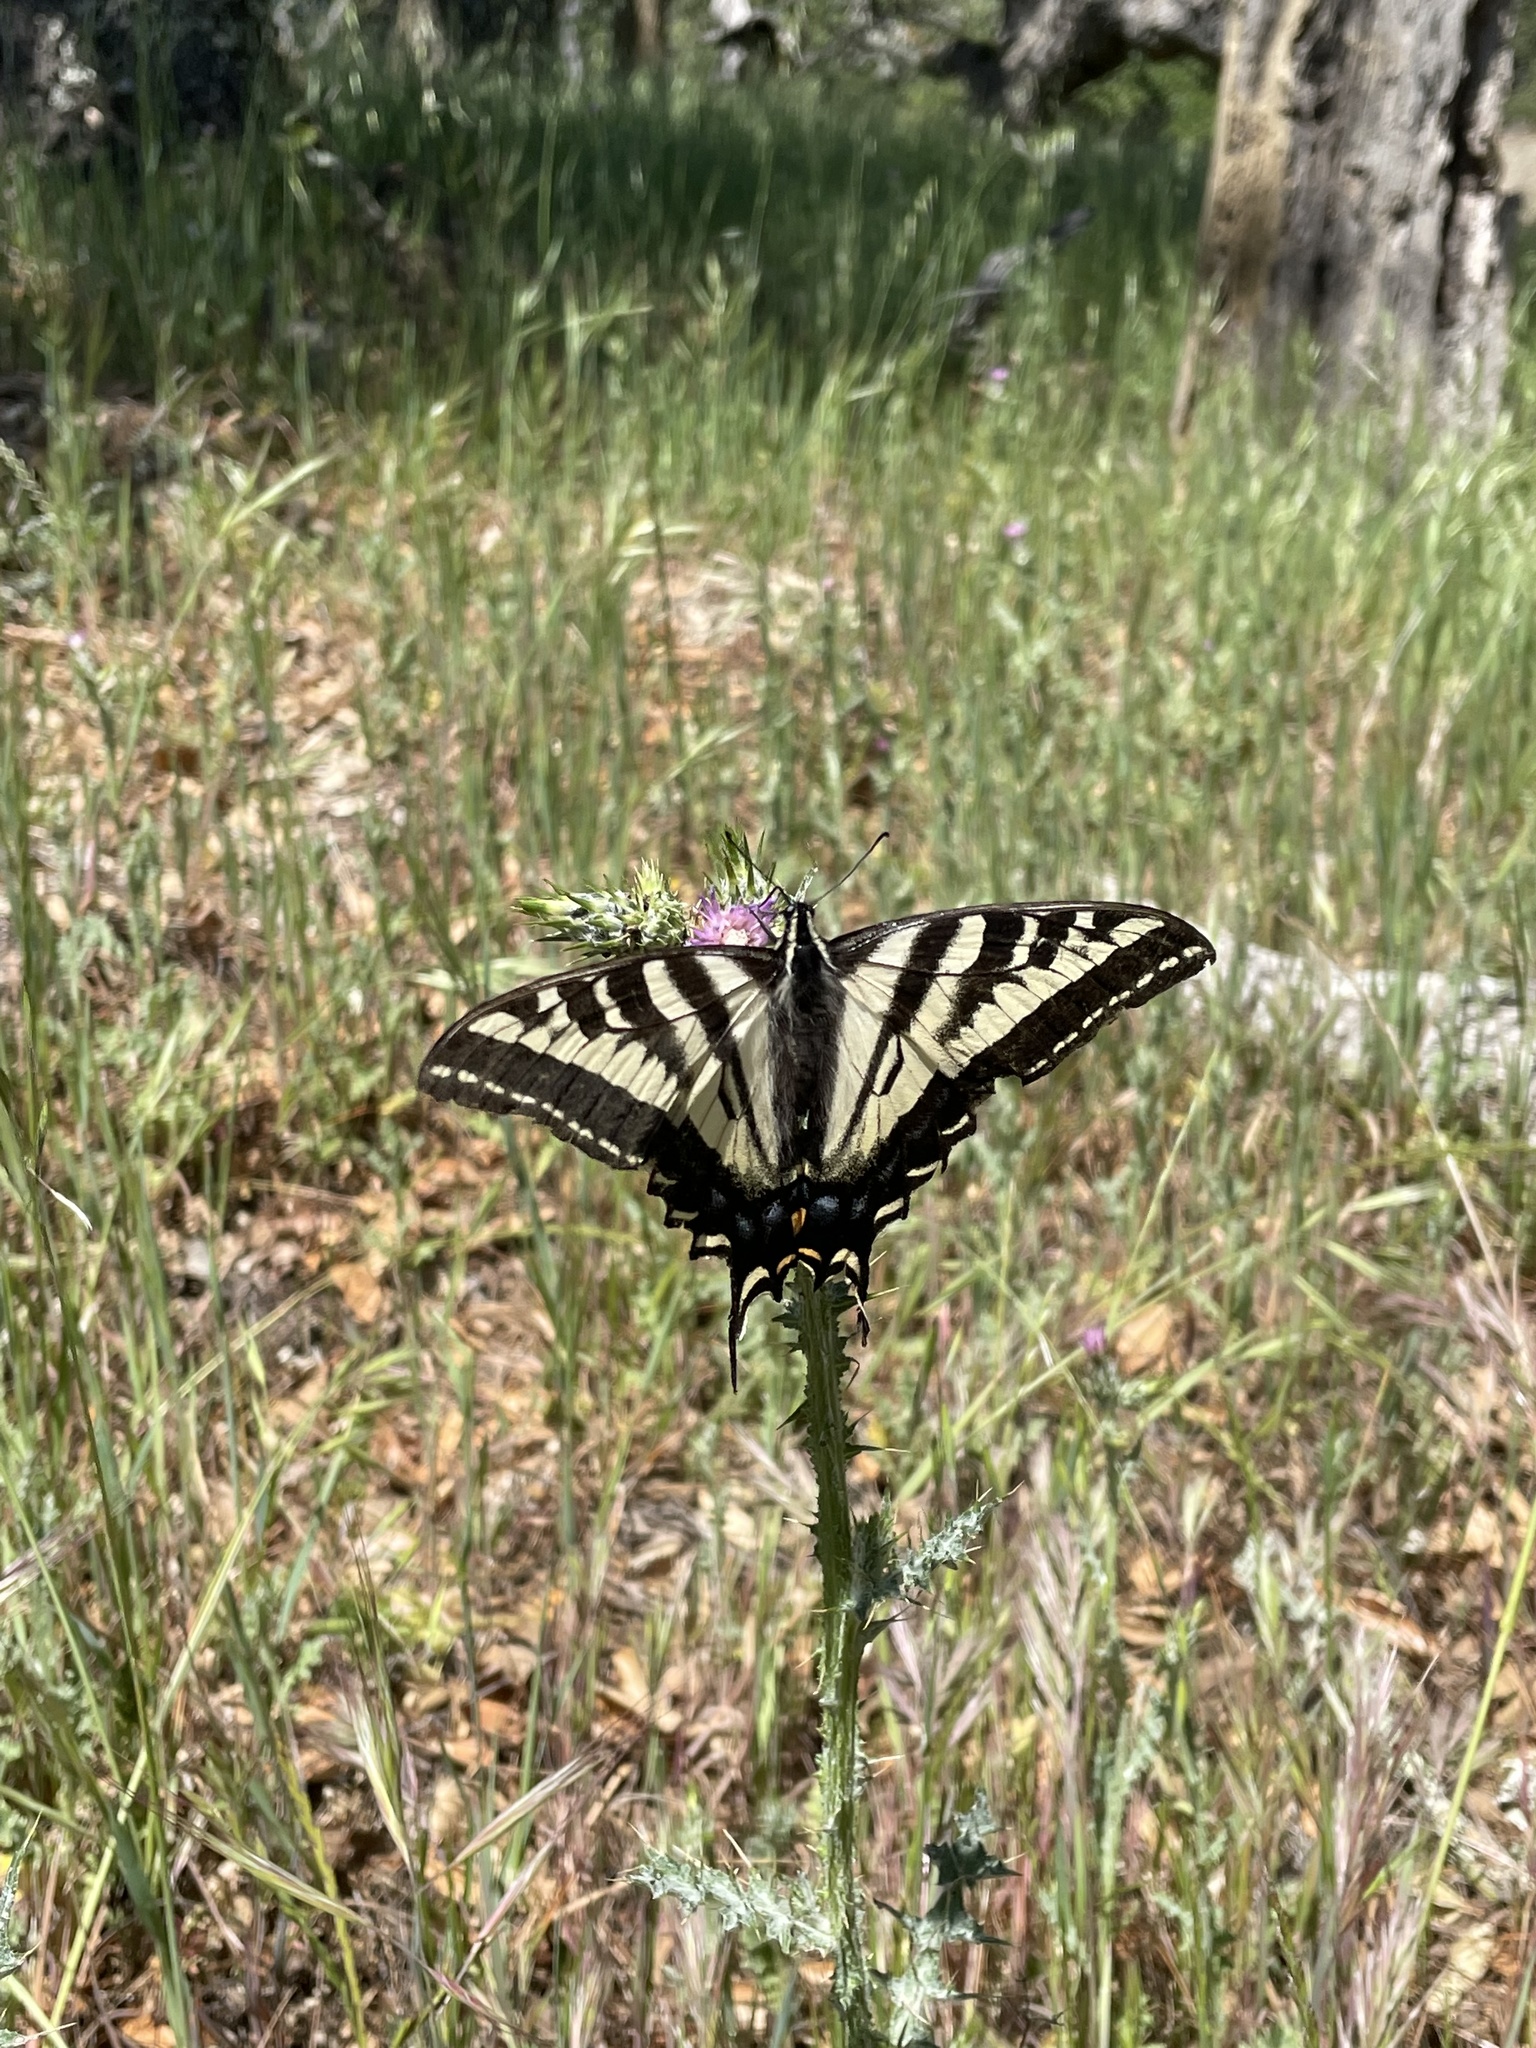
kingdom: Animalia
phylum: Arthropoda
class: Insecta
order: Lepidoptera
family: Papilionidae
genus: Papilio
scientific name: Papilio eurymedon
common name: Pale tiger swallowtail
